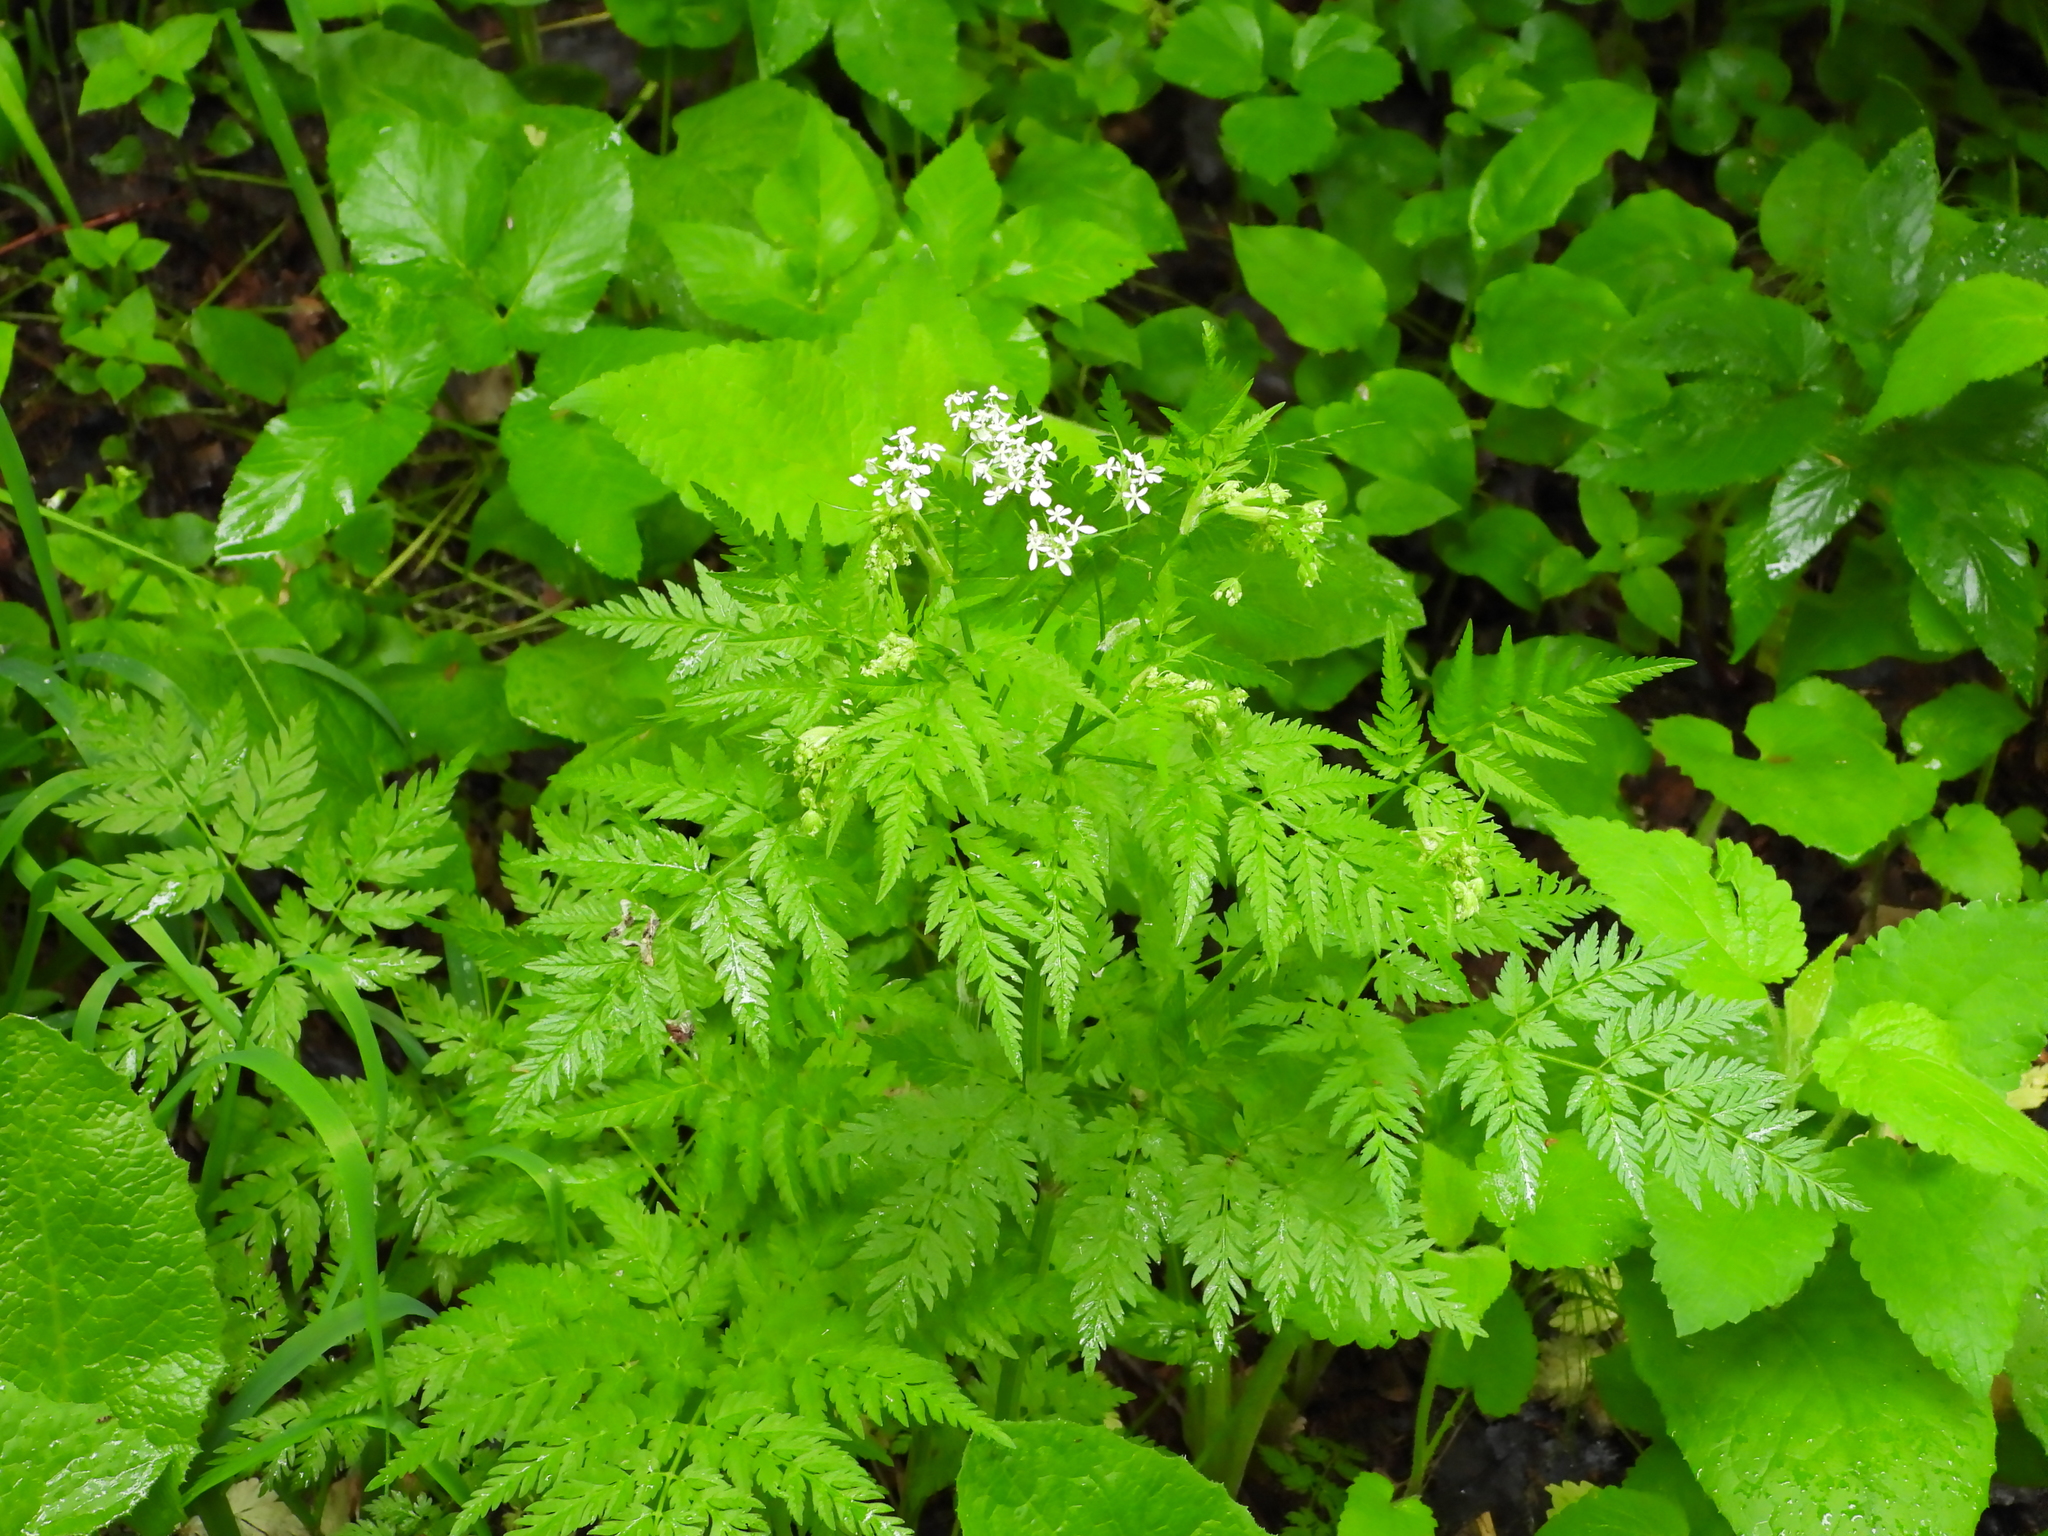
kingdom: Plantae
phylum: Tracheophyta
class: Magnoliopsida
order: Apiales
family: Apiaceae
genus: Anthriscus
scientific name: Anthriscus sylvestris
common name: Cow parsley
